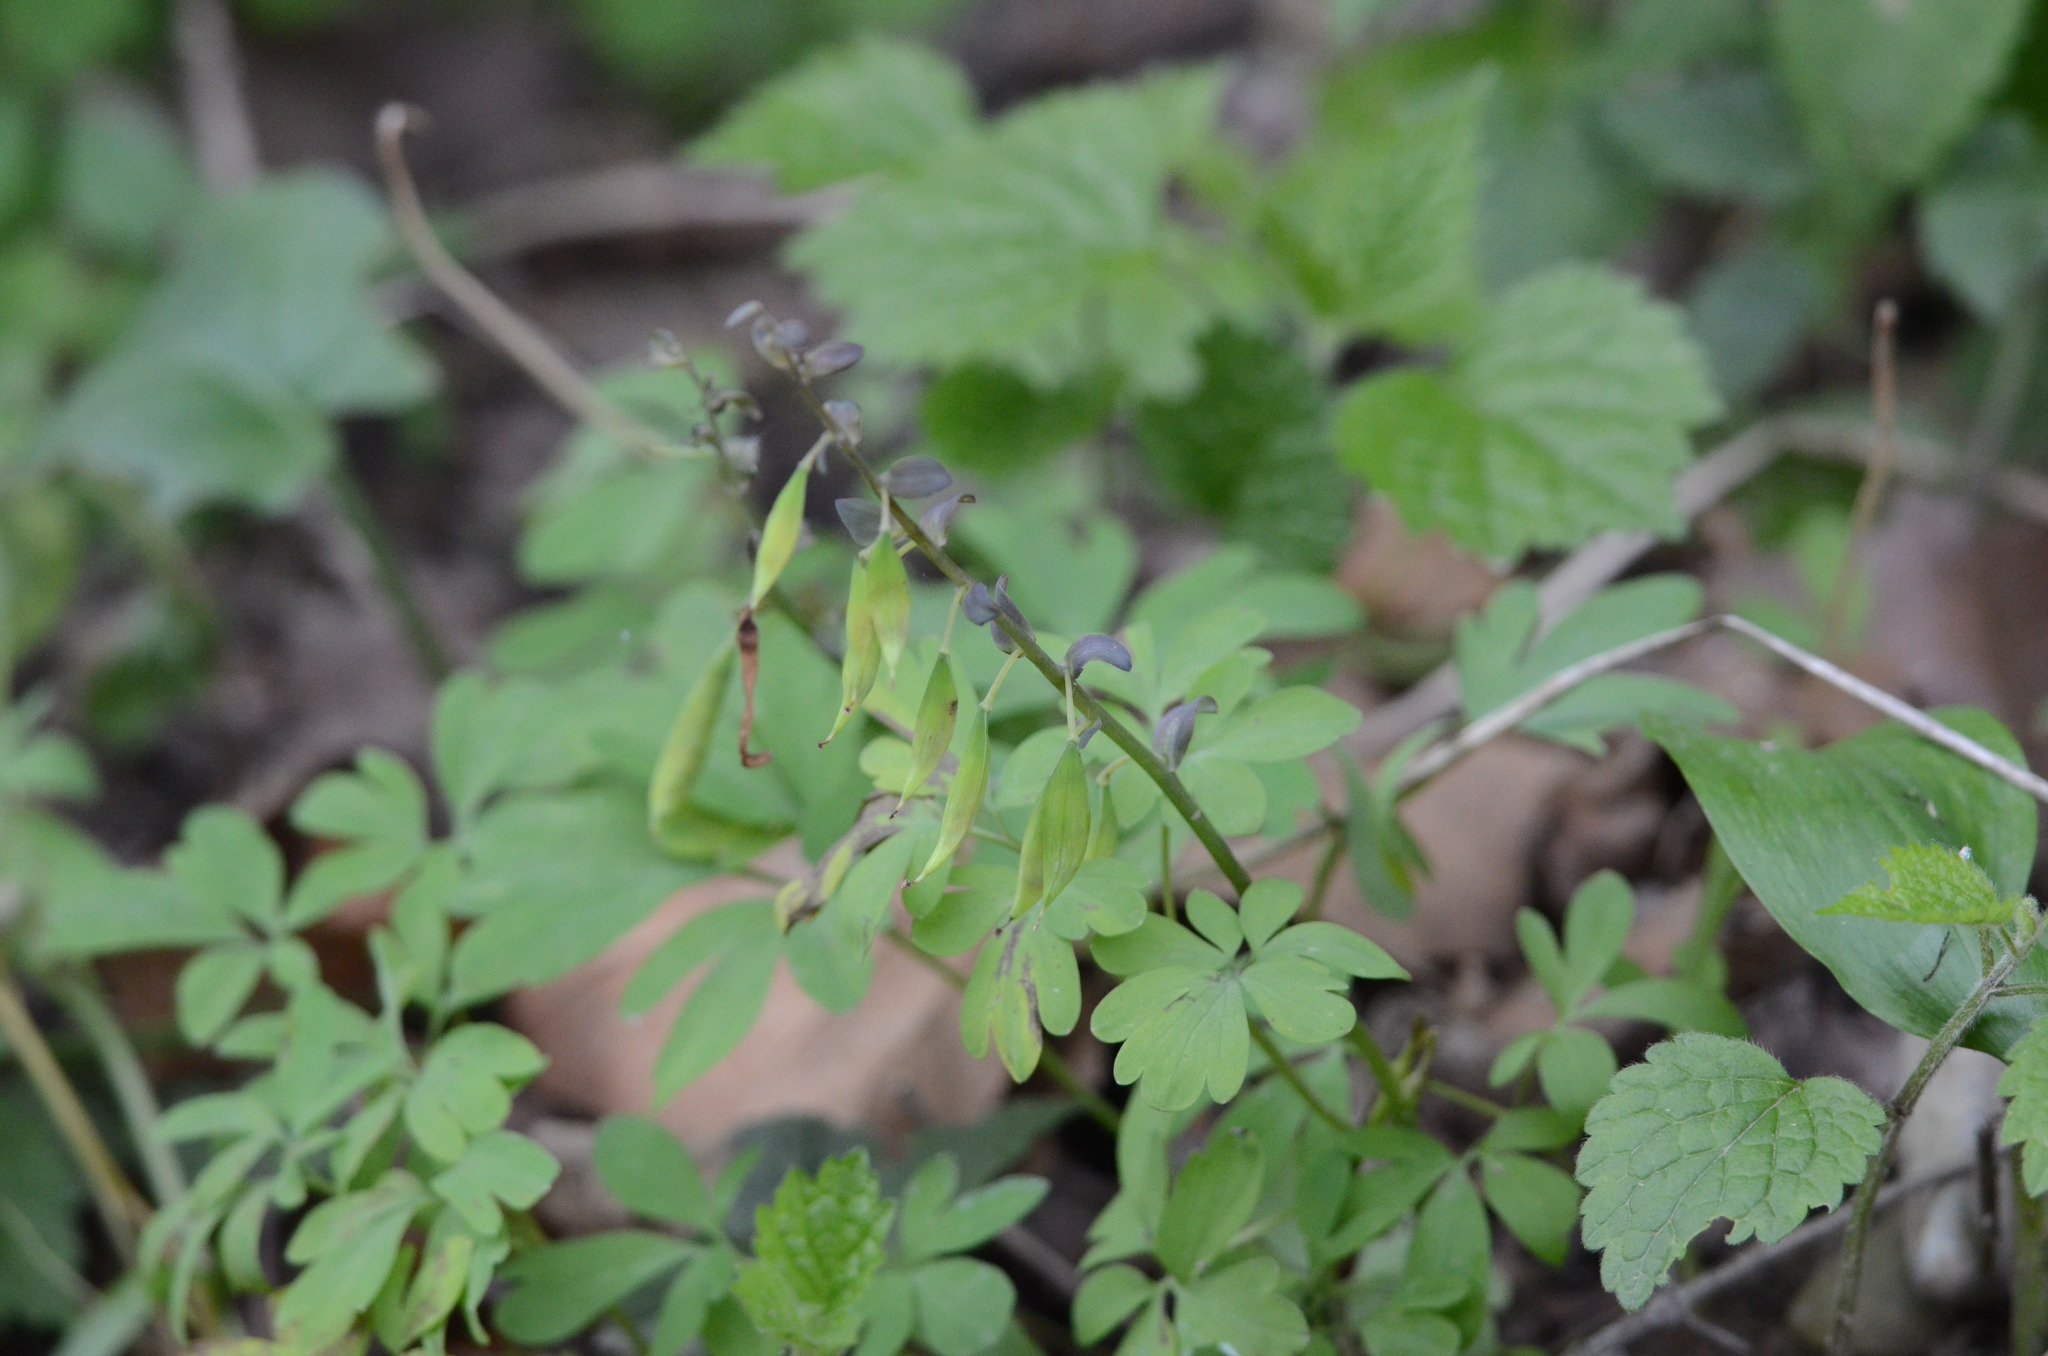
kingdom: Plantae
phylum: Tracheophyta
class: Magnoliopsida
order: Ranunculales
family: Papaveraceae
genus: Corydalis
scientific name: Corydalis cava
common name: Hollowroot
